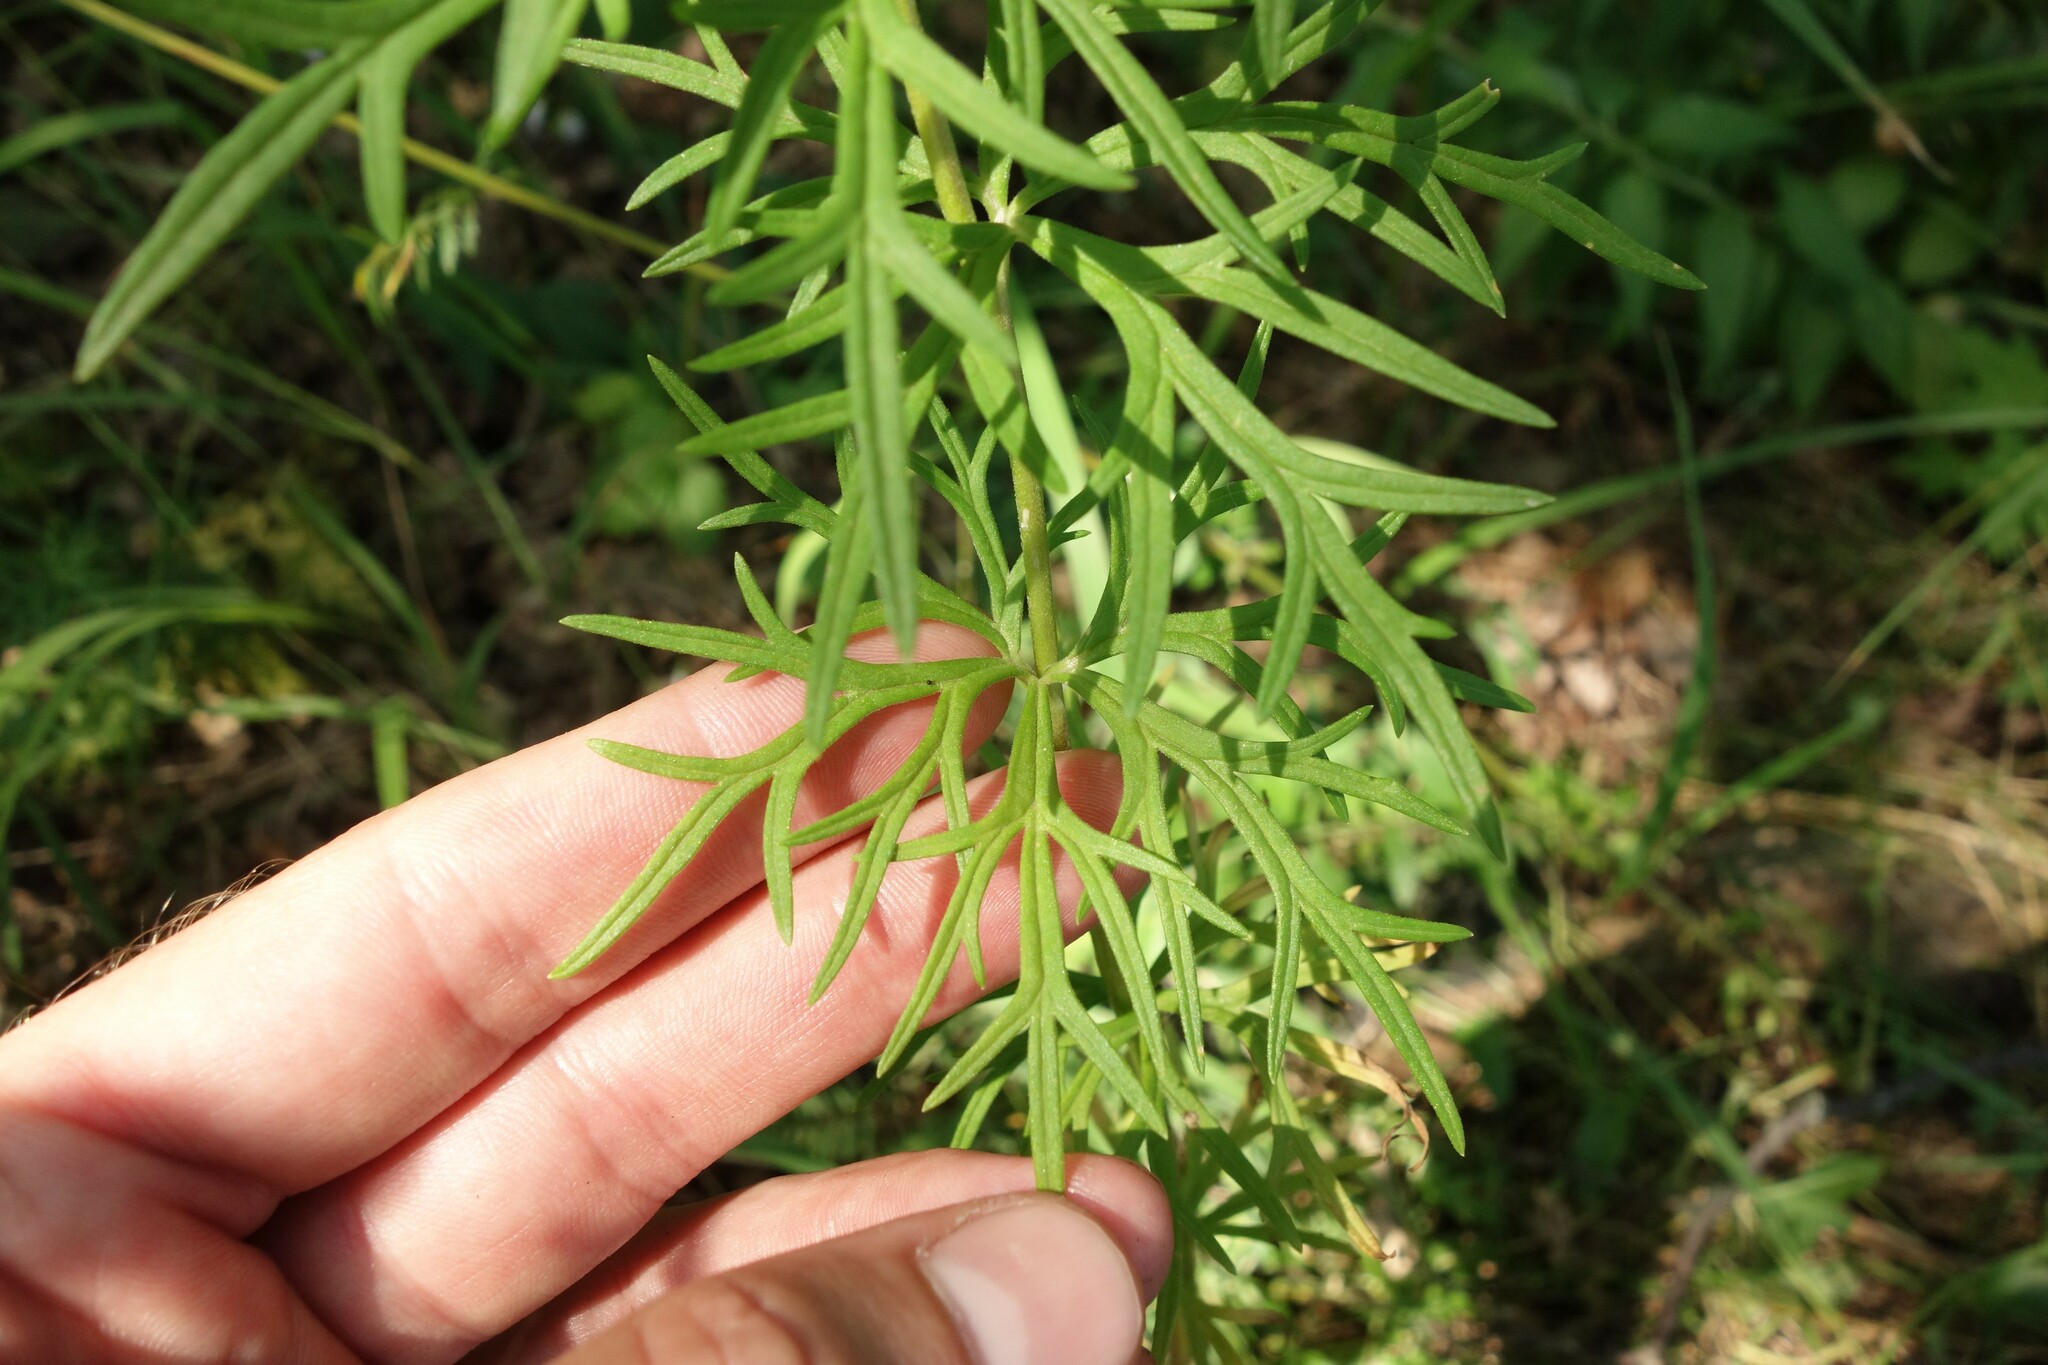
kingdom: Plantae
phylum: Tracheophyta
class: Magnoliopsida
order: Ranunculales
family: Ranunculaceae
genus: Aconitum
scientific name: Aconitum anthora
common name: Yellow monkshood
